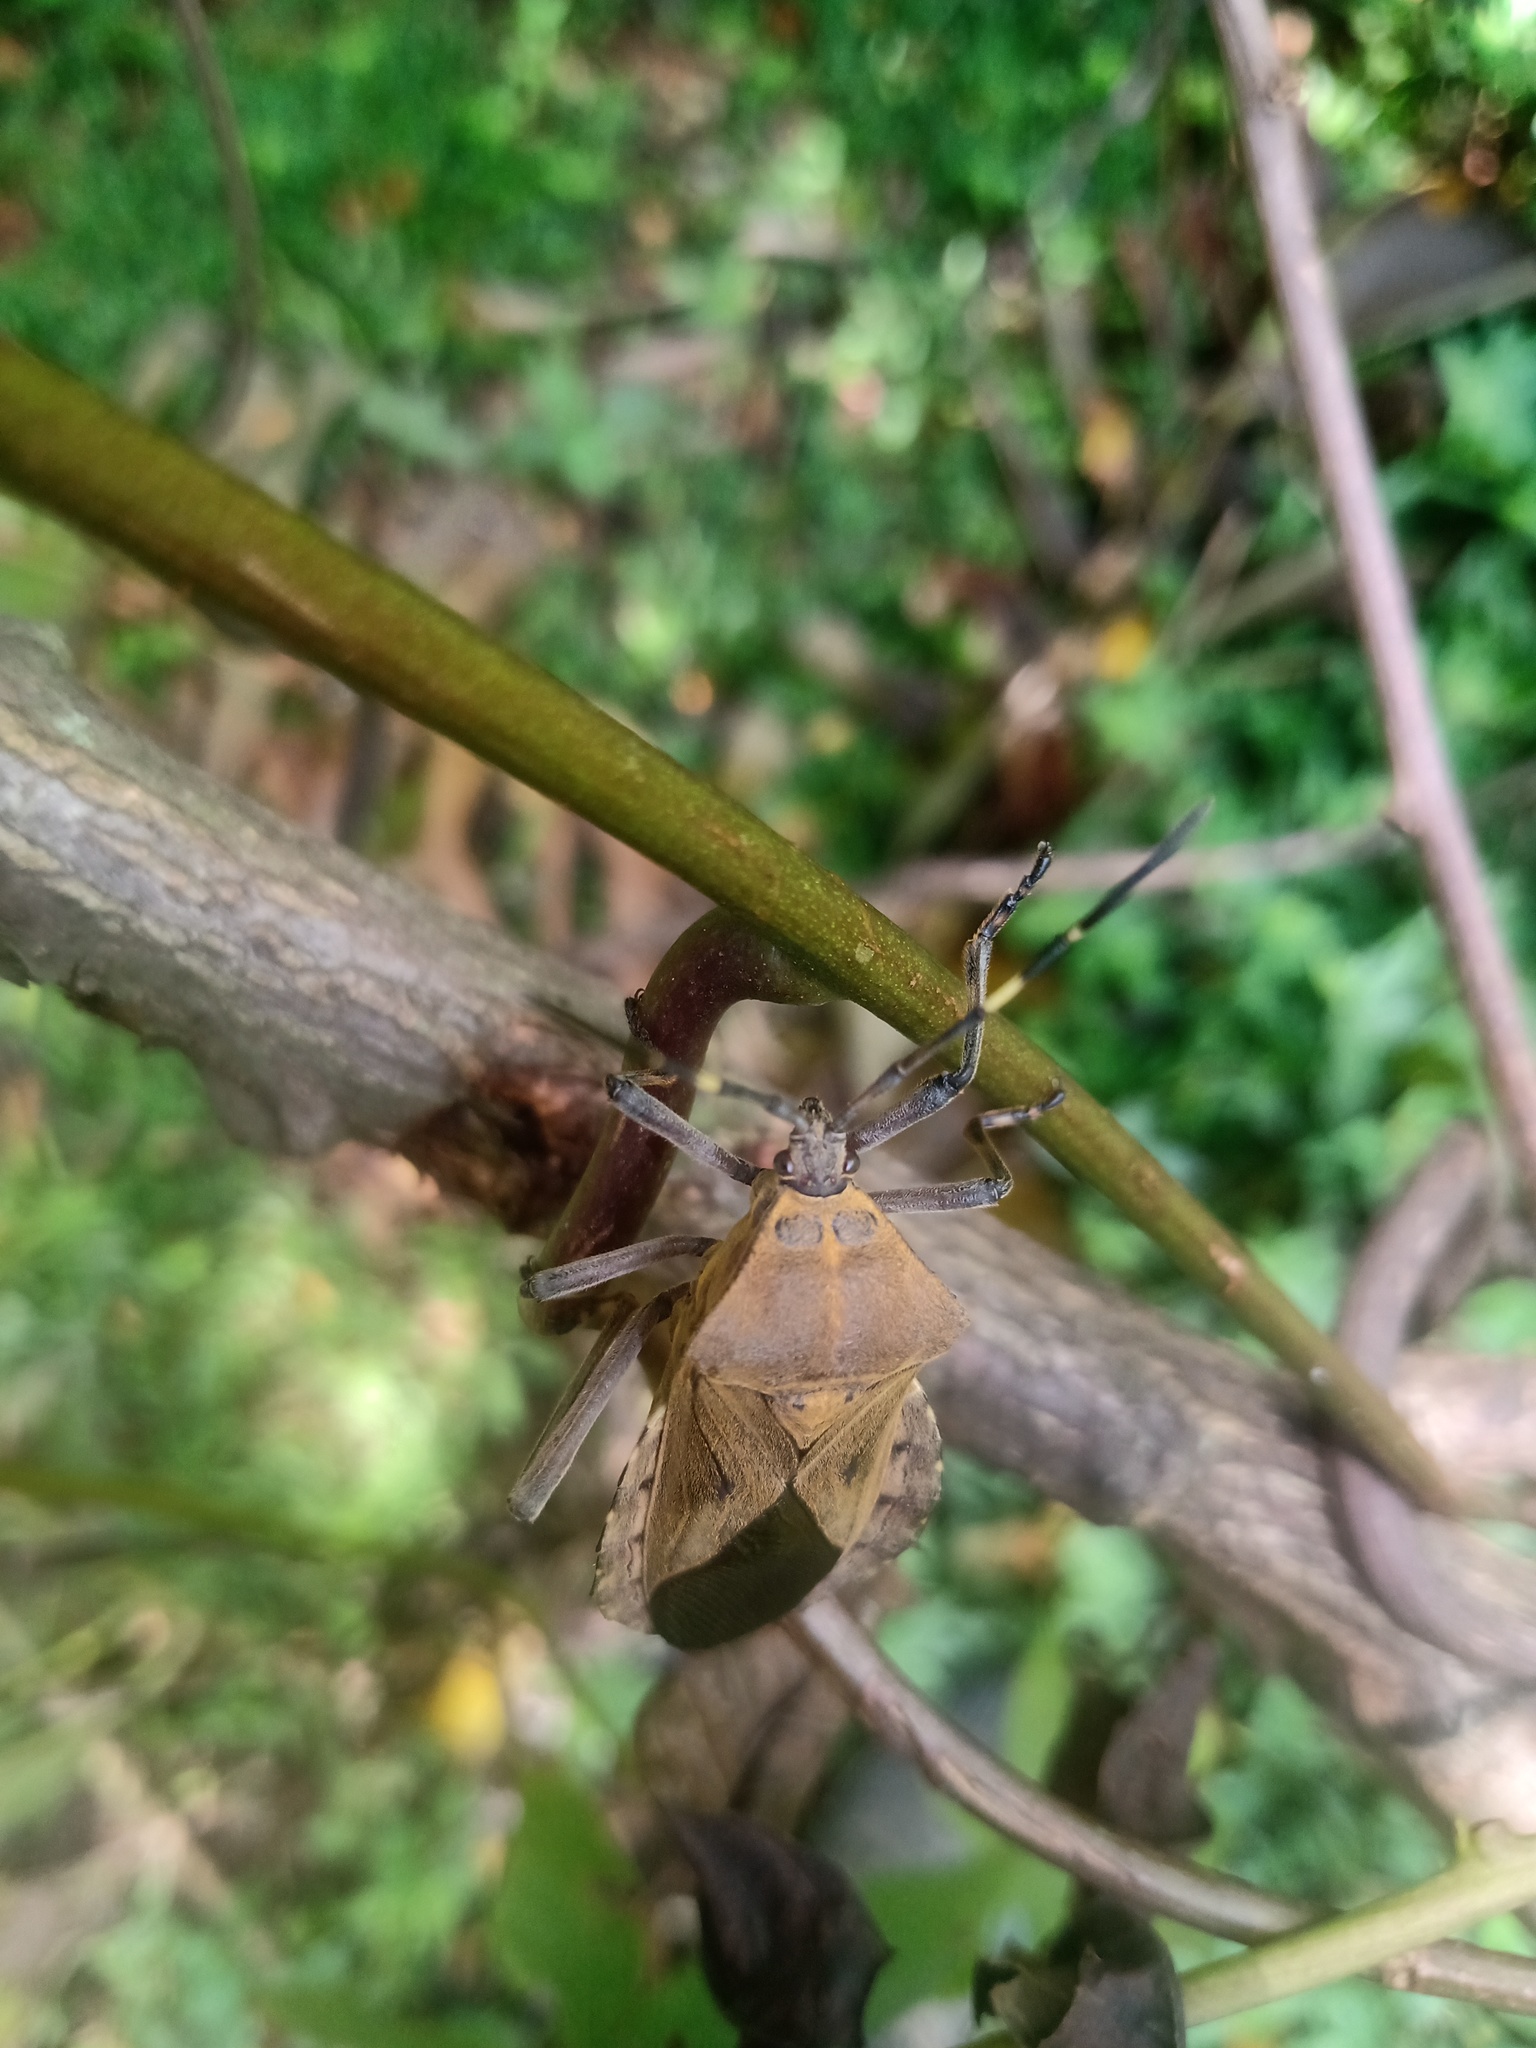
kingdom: Animalia
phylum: Arthropoda
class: Insecta
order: Hemiptera
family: Coreidae
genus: Pachylis
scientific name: Pachylis laticornis
